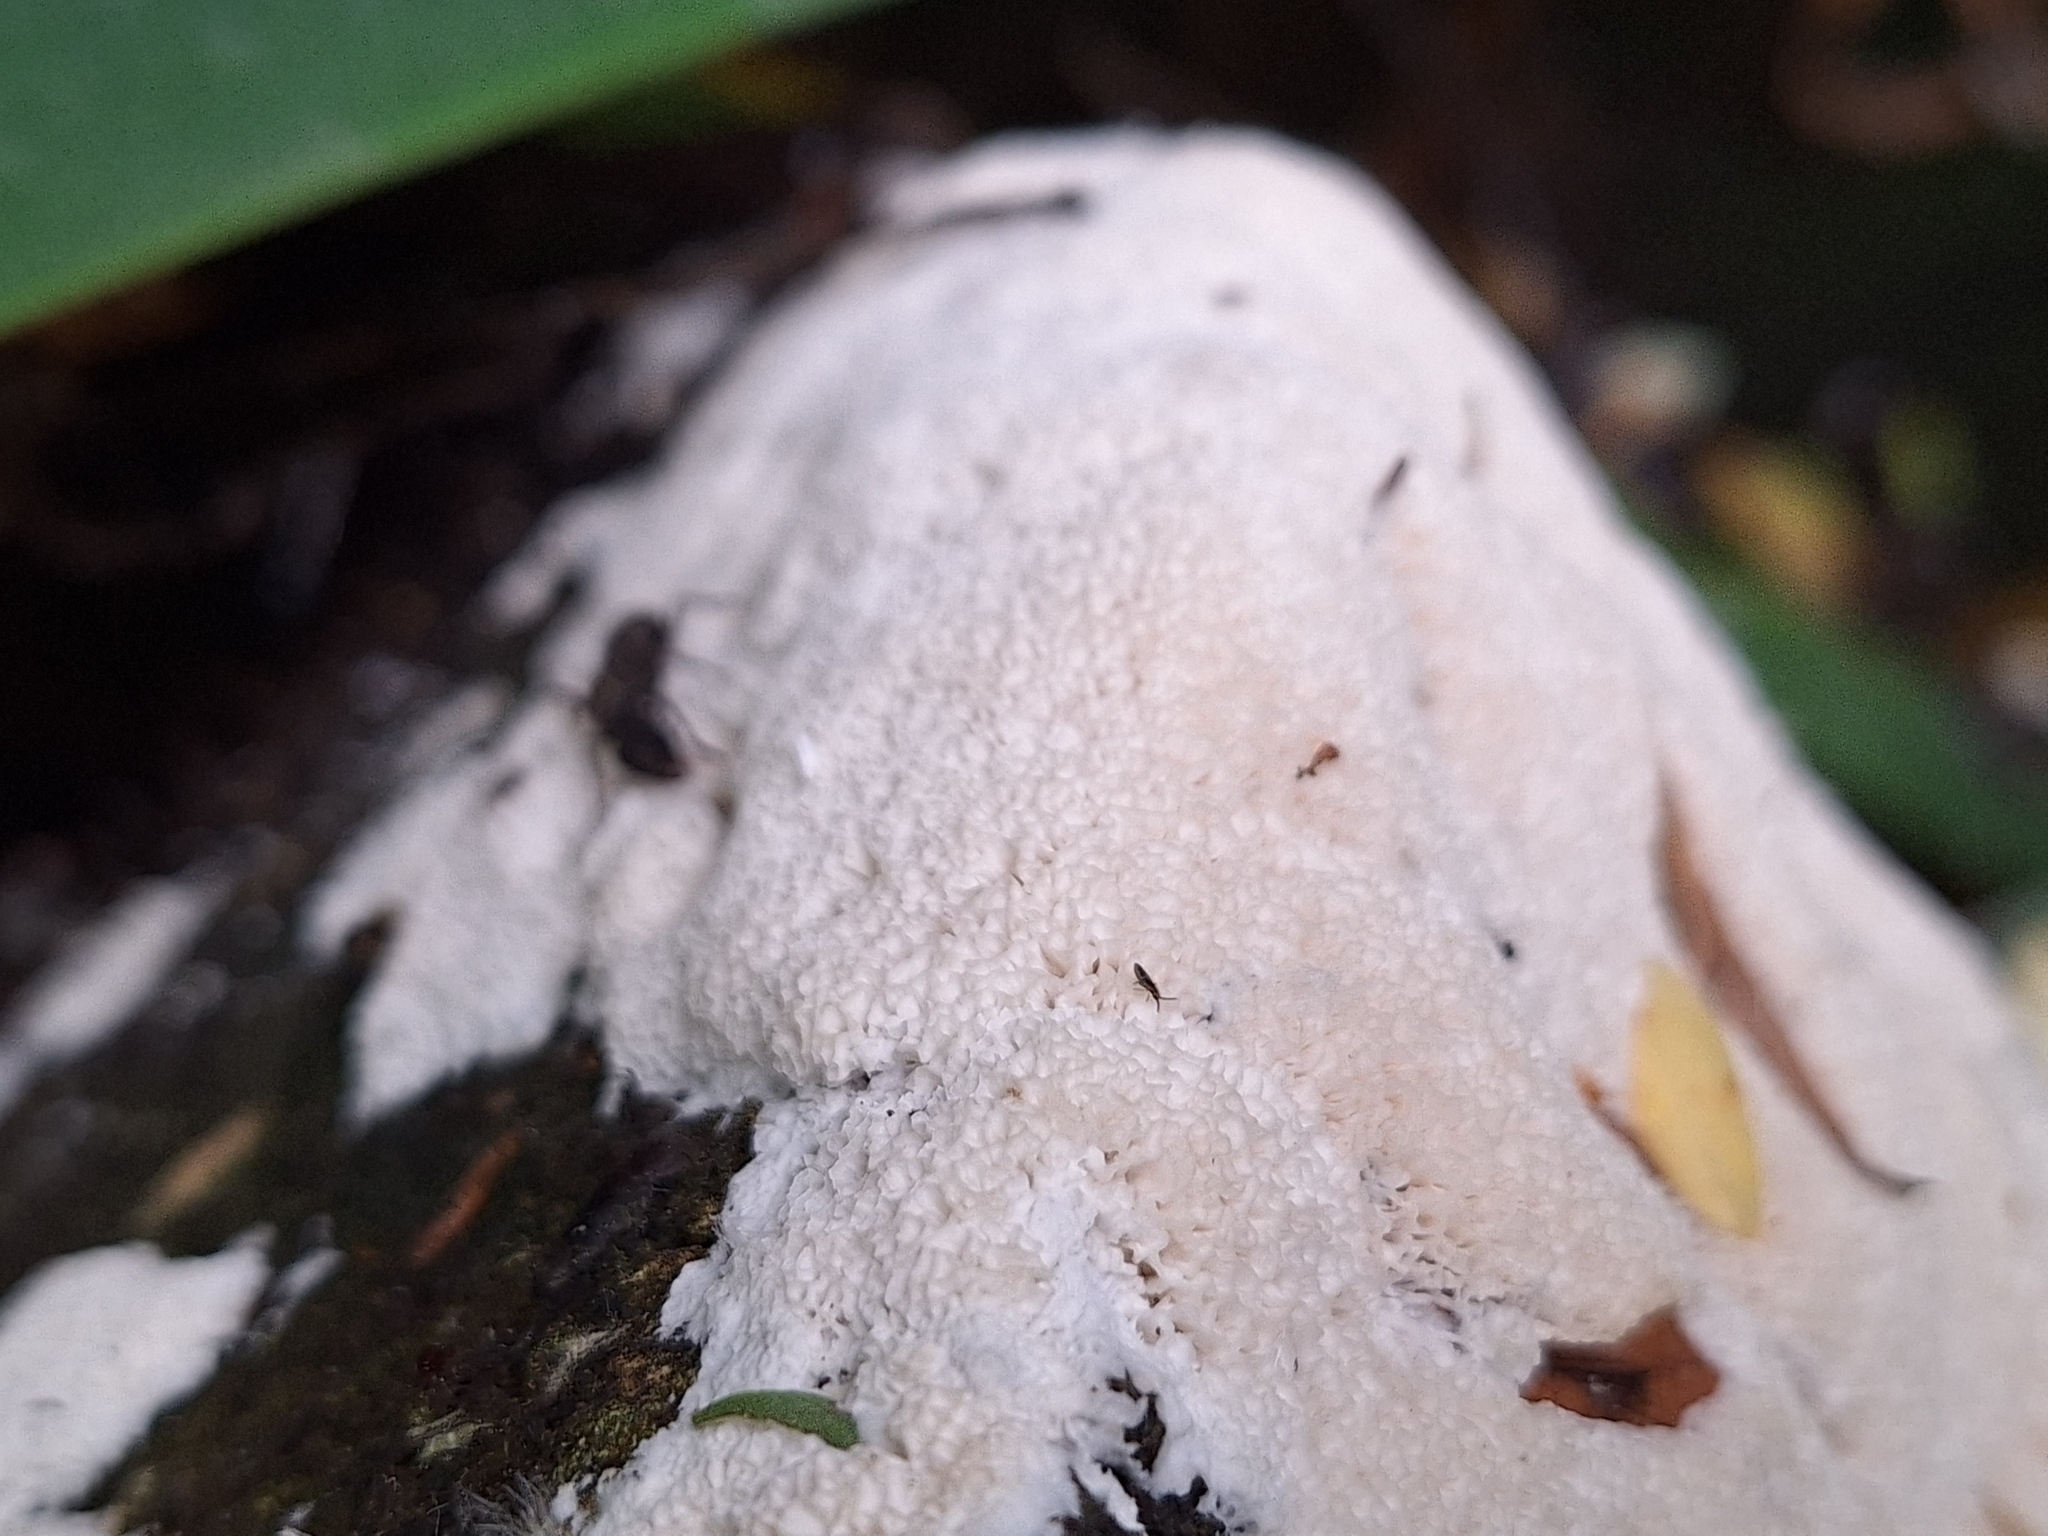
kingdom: Fungi
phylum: Basidiomycota
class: Agaricomycetes
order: Polyporales
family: Irpicaceae
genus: Irpex
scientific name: Irpex rosettiformis
